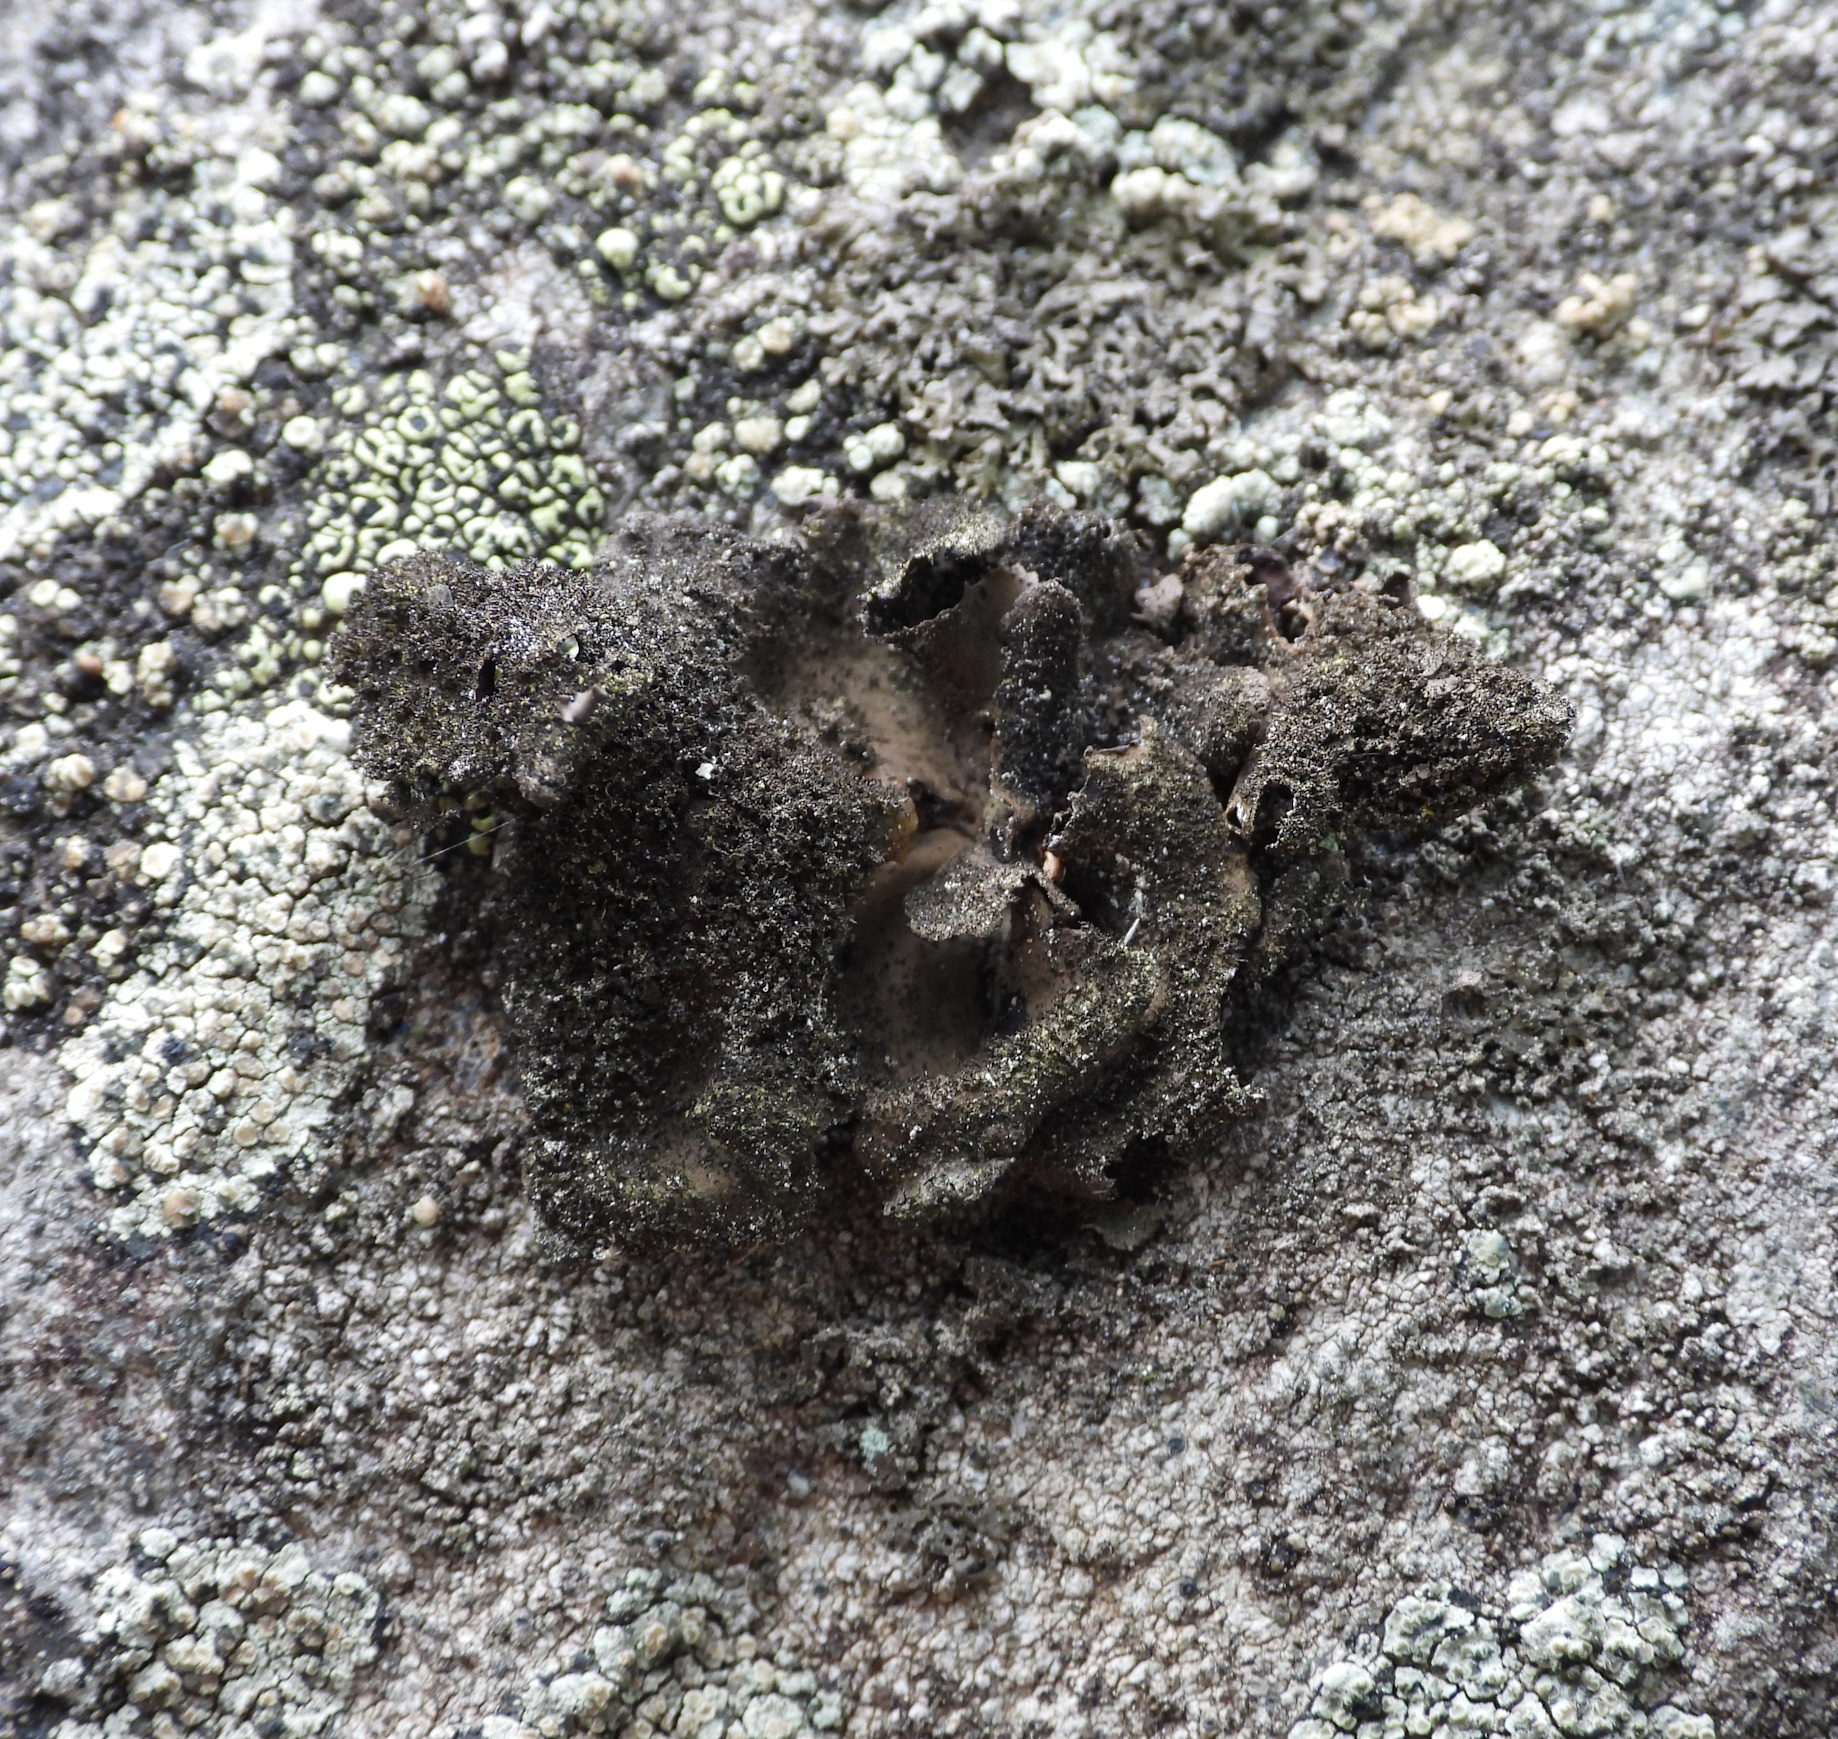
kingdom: Fungi
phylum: Ascomycota
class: Lecanoromycetes
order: Umbilicariales
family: Umbilicariaceae
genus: Umbilicaria
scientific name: Umbilicaria deusta
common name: Peppered rock tripe
